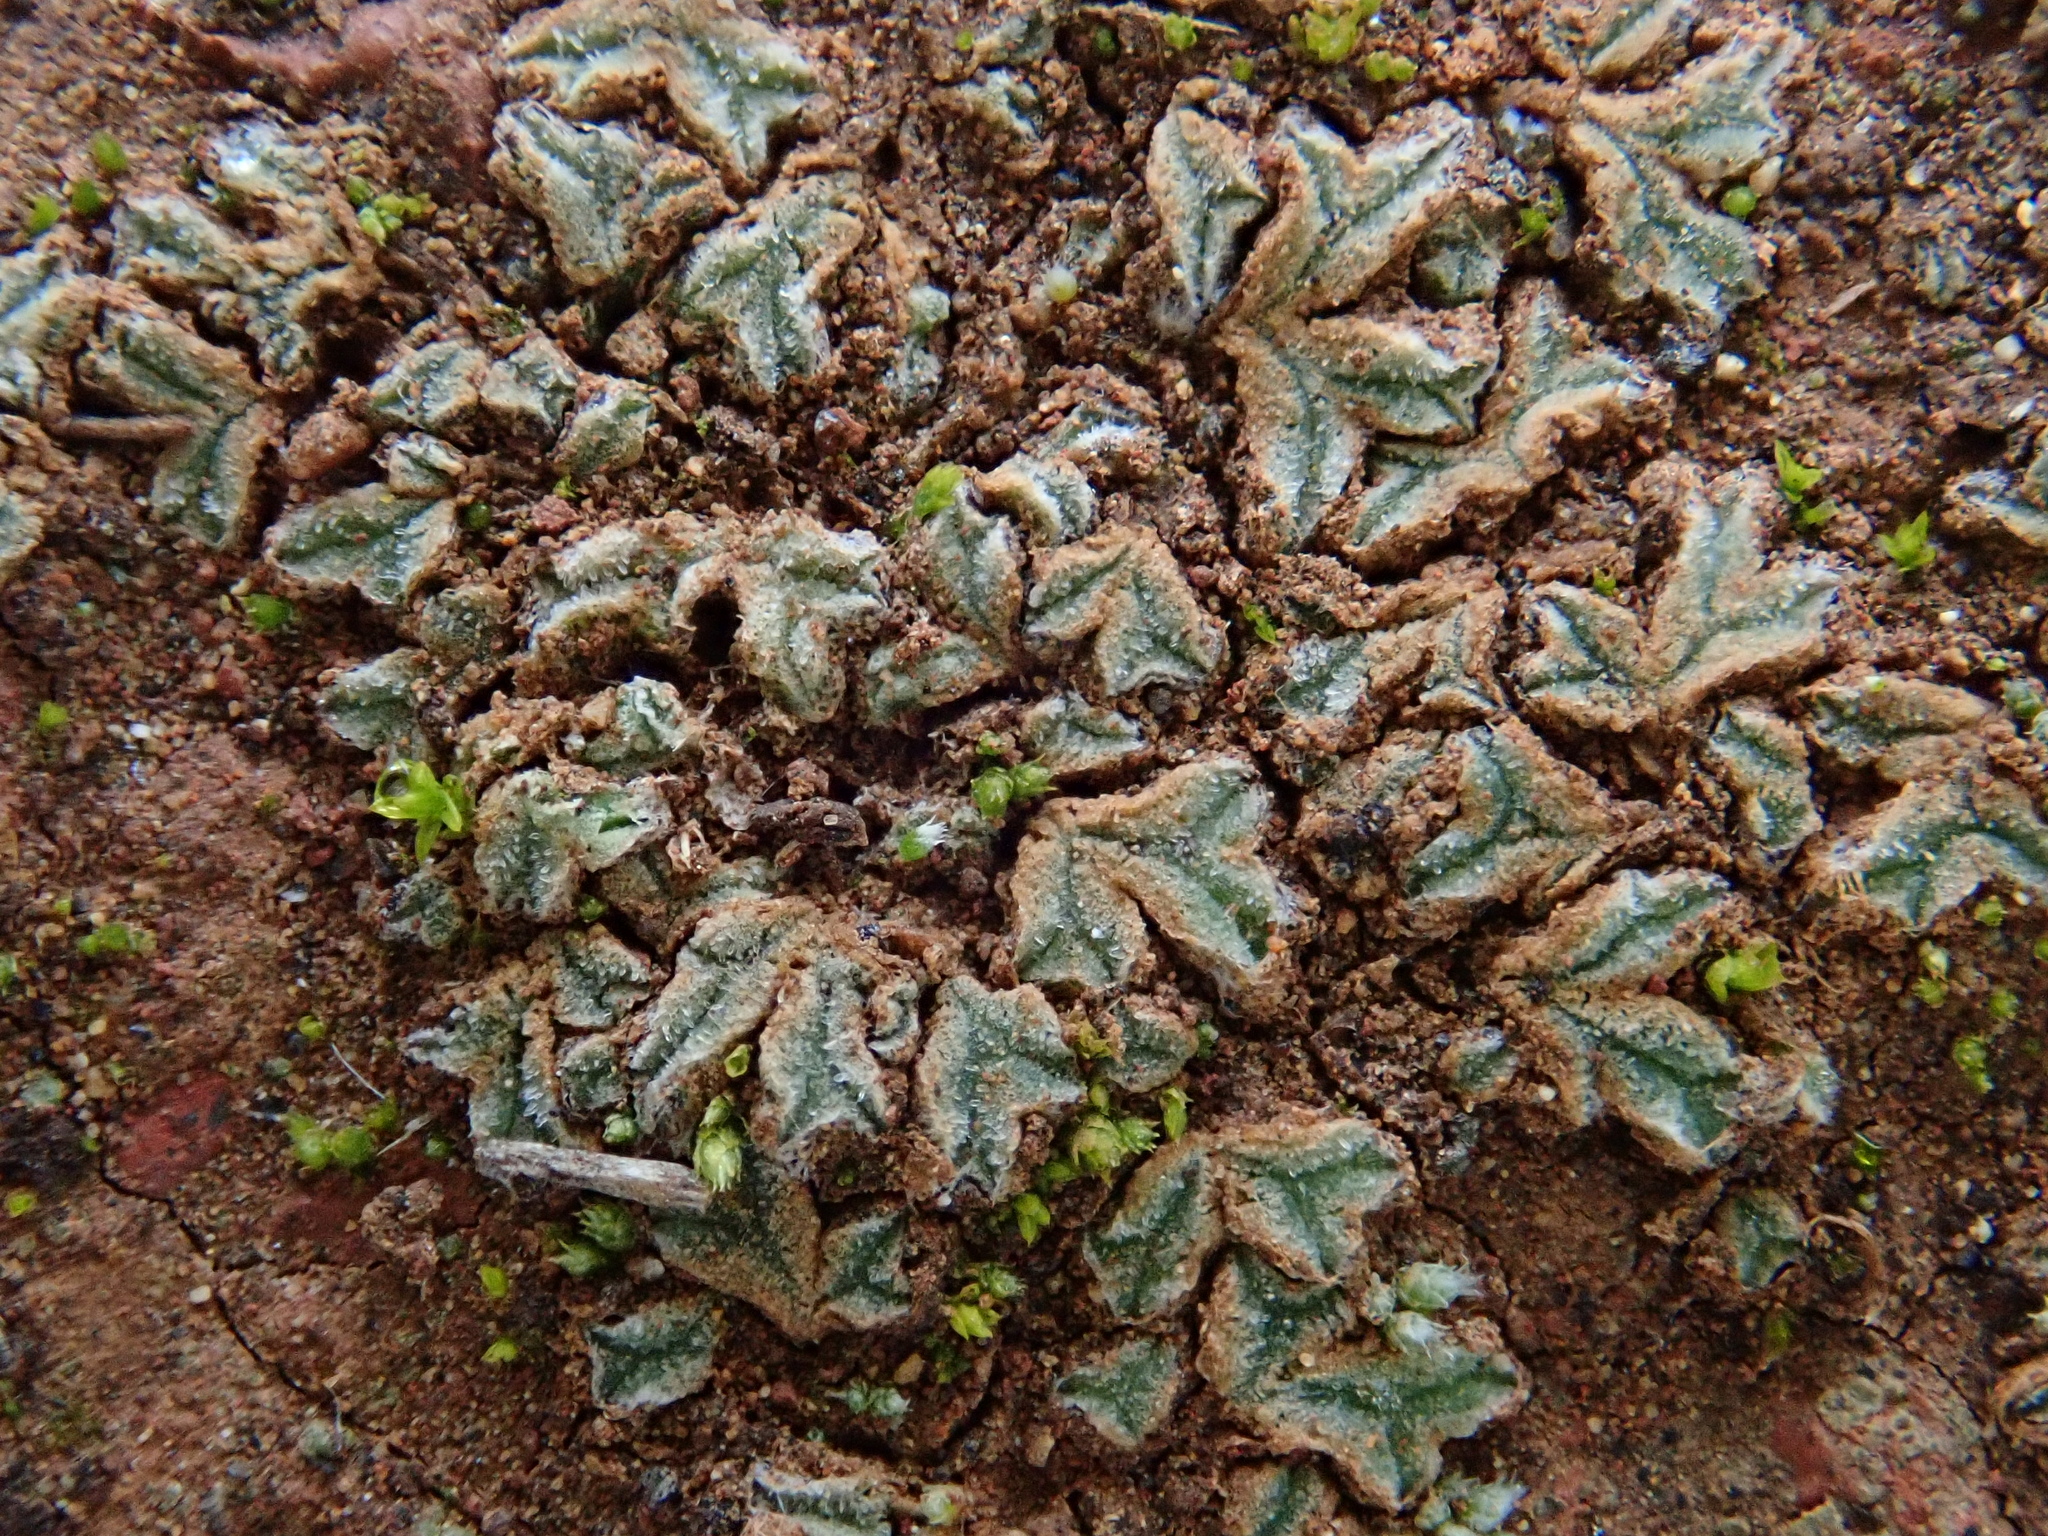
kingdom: Plantae
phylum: Marchantiophyta
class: Marchantiopsida
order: Marchantiales
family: Ricciaceae
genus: Riccia
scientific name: Riccia papillosa
